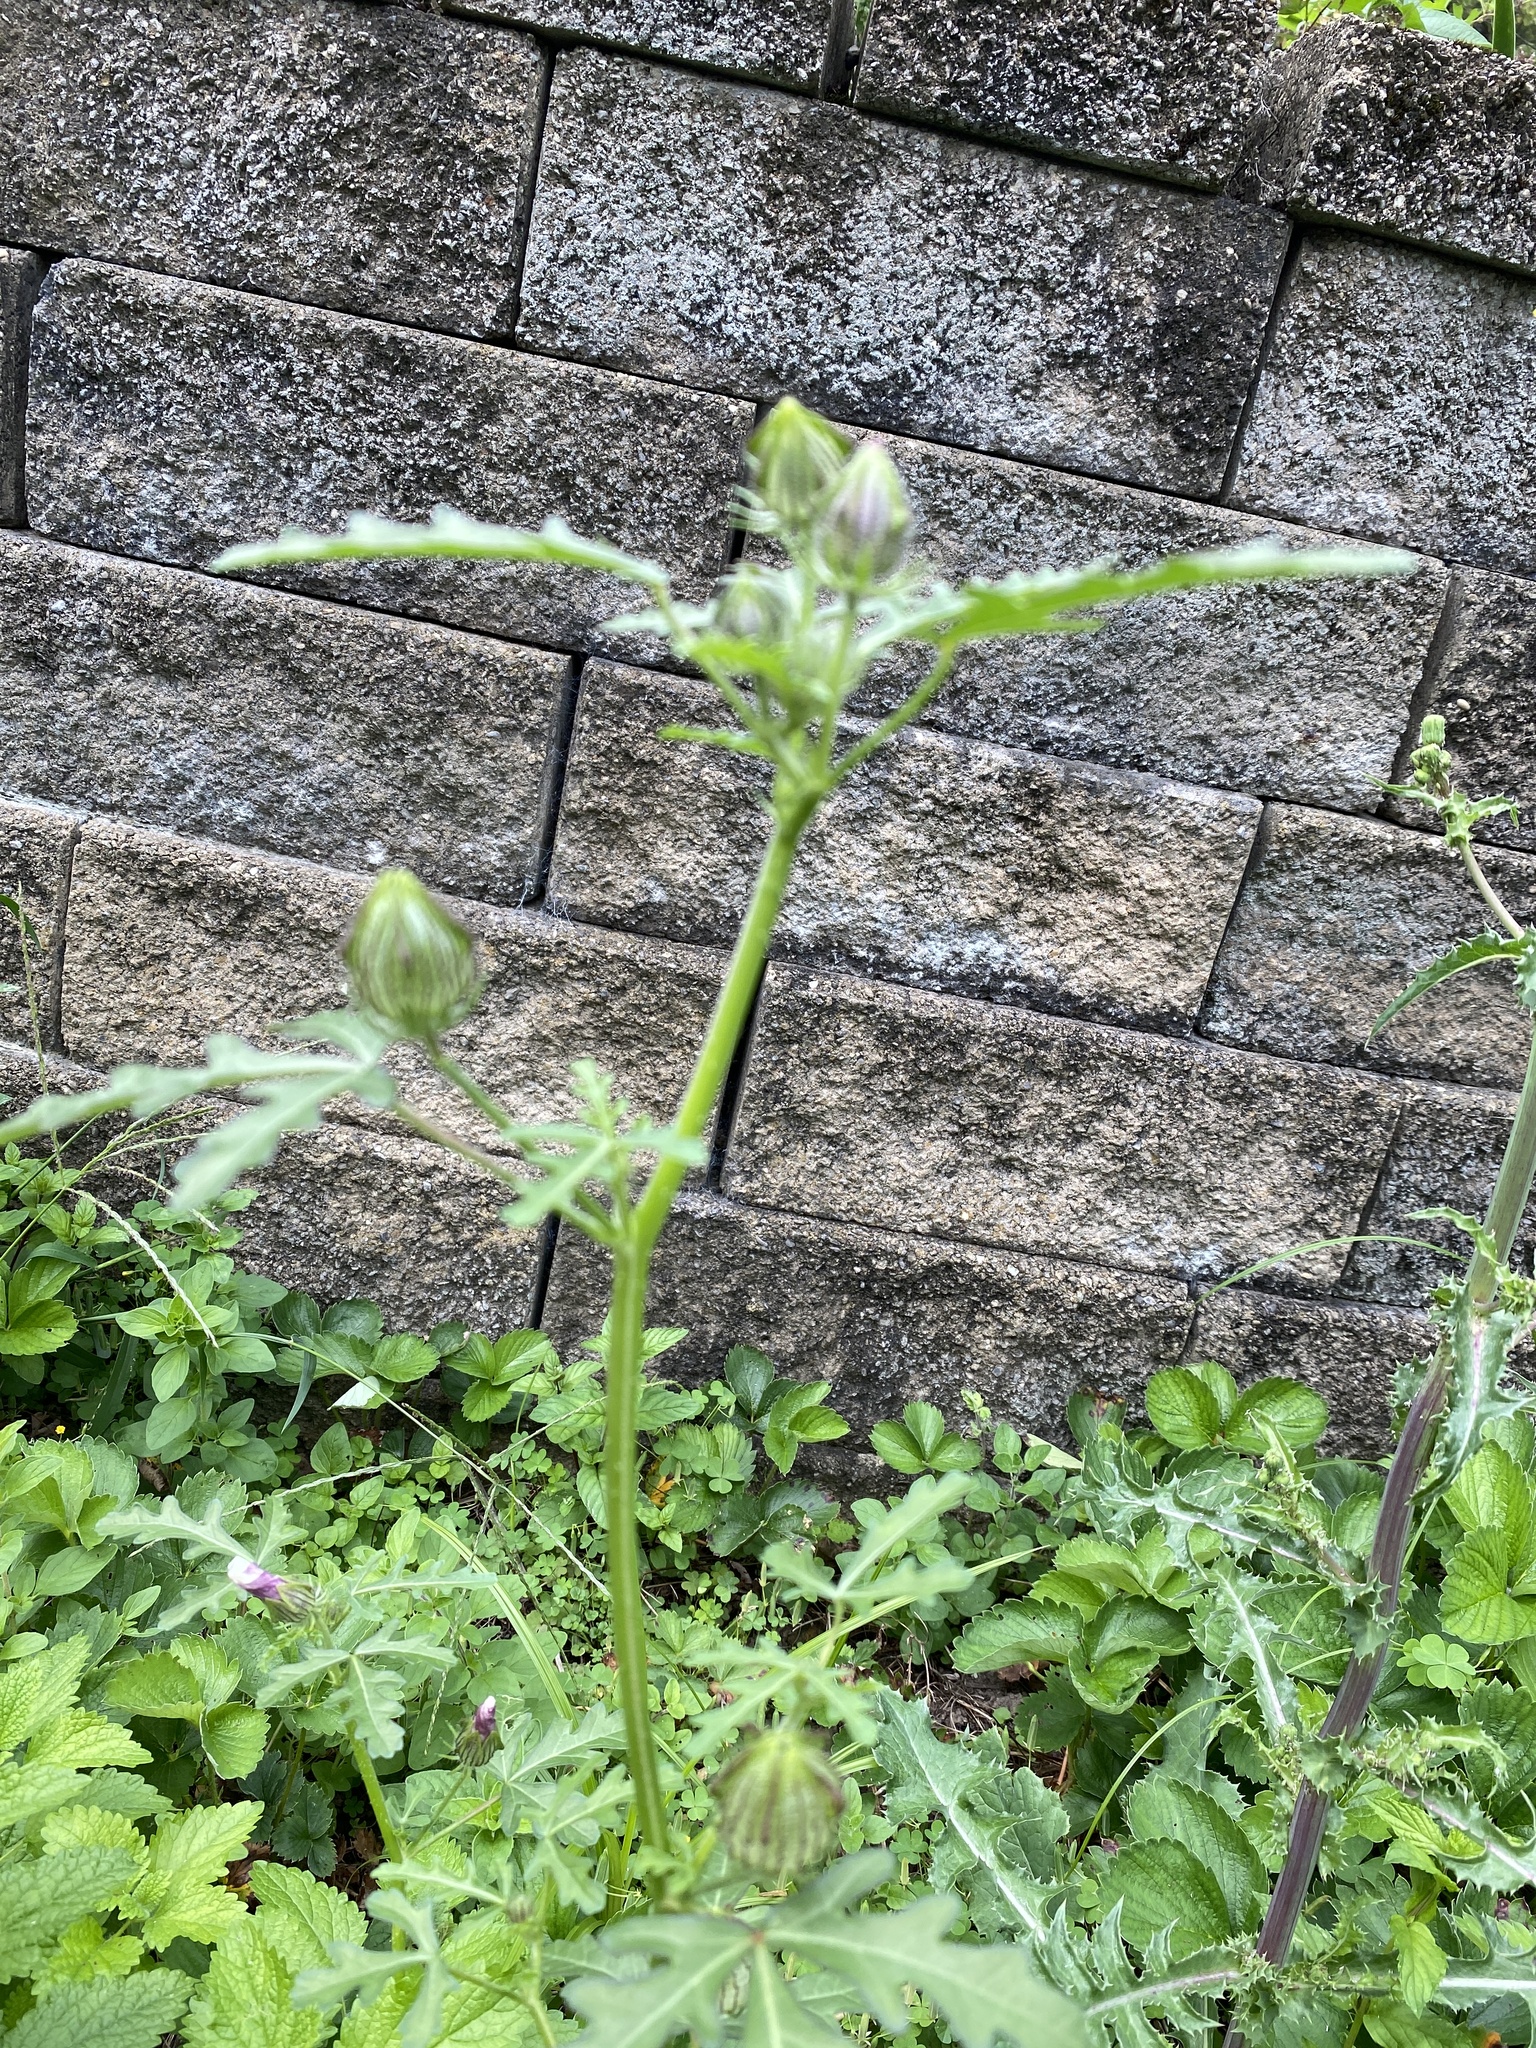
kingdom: Plantae
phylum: Tracheophyta
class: Magnoliopsida
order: Malvales
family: Malvaceae
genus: Hibiscus
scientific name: Hibiscus trionum
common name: Bladder ketmia
